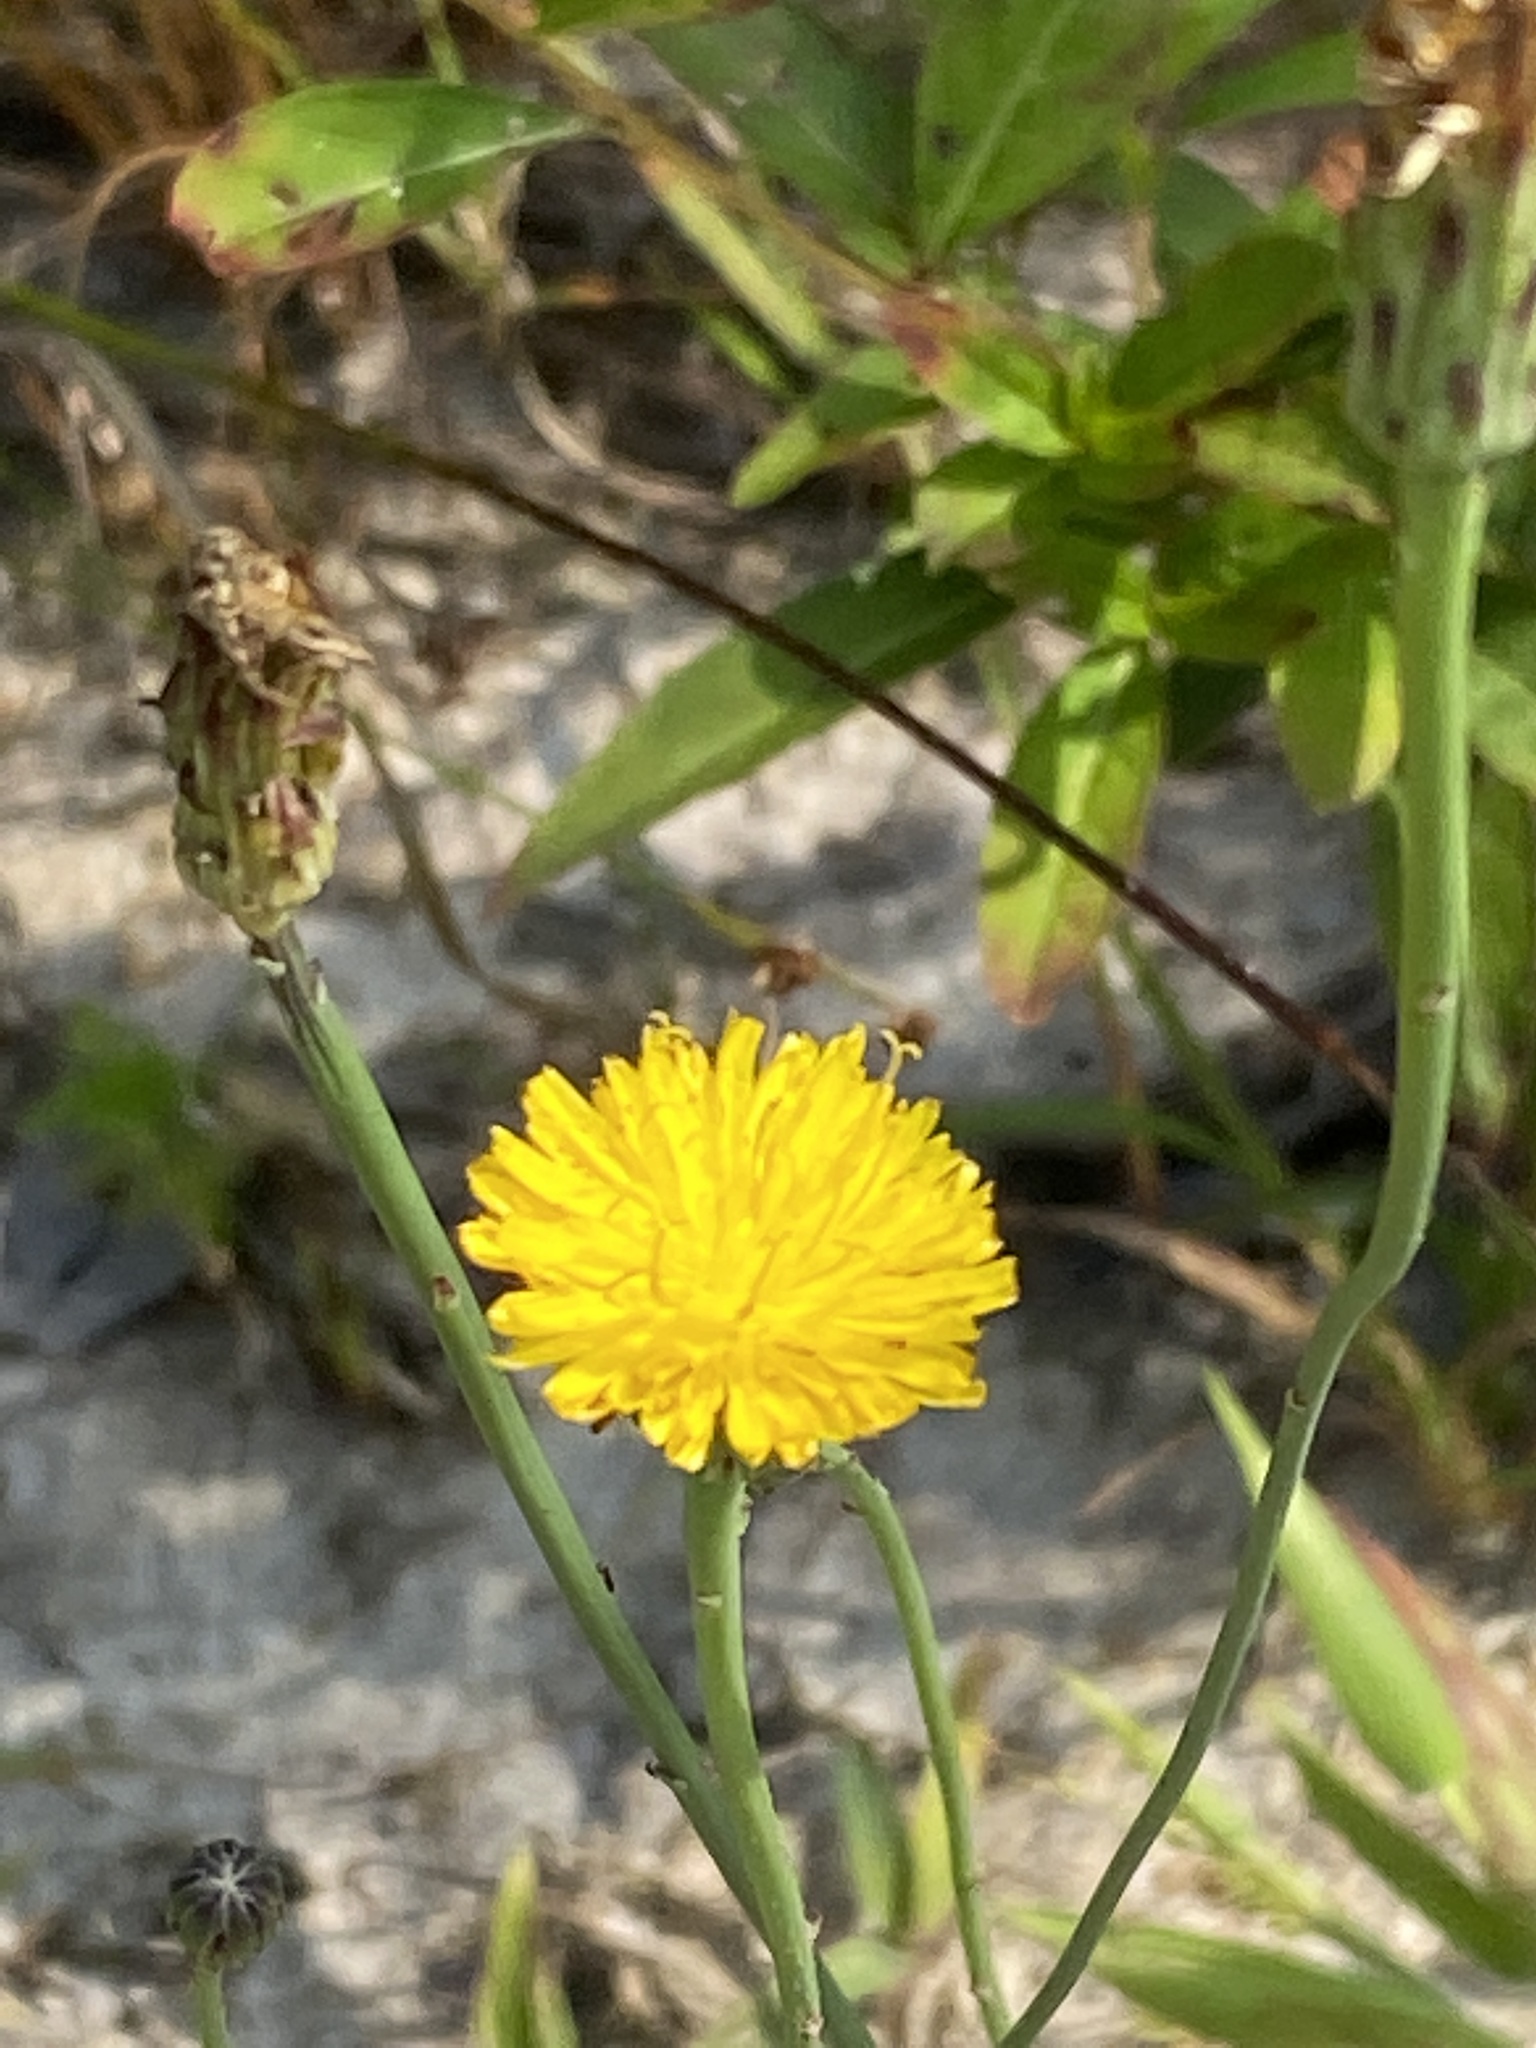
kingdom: Plantae
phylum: Tracheophyta
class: Magnoliopsida
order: Asterales
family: Asteraceae
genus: Hypochaeris
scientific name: Hypochaeris radicata
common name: Flatweed
